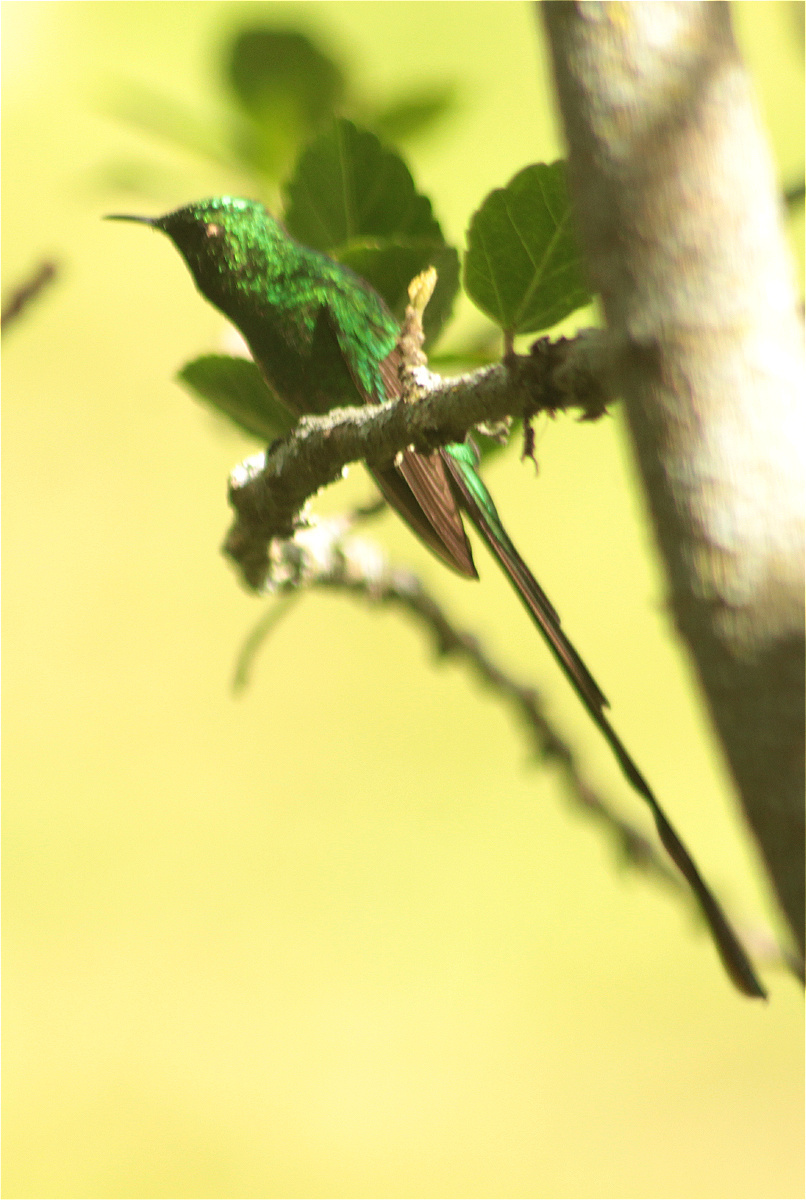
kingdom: Animalia
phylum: Chordata
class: Aves
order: Apodiformes
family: Trochilidae
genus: Lesbia
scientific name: Lesbia nuna
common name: Green-tailed trainbearer
